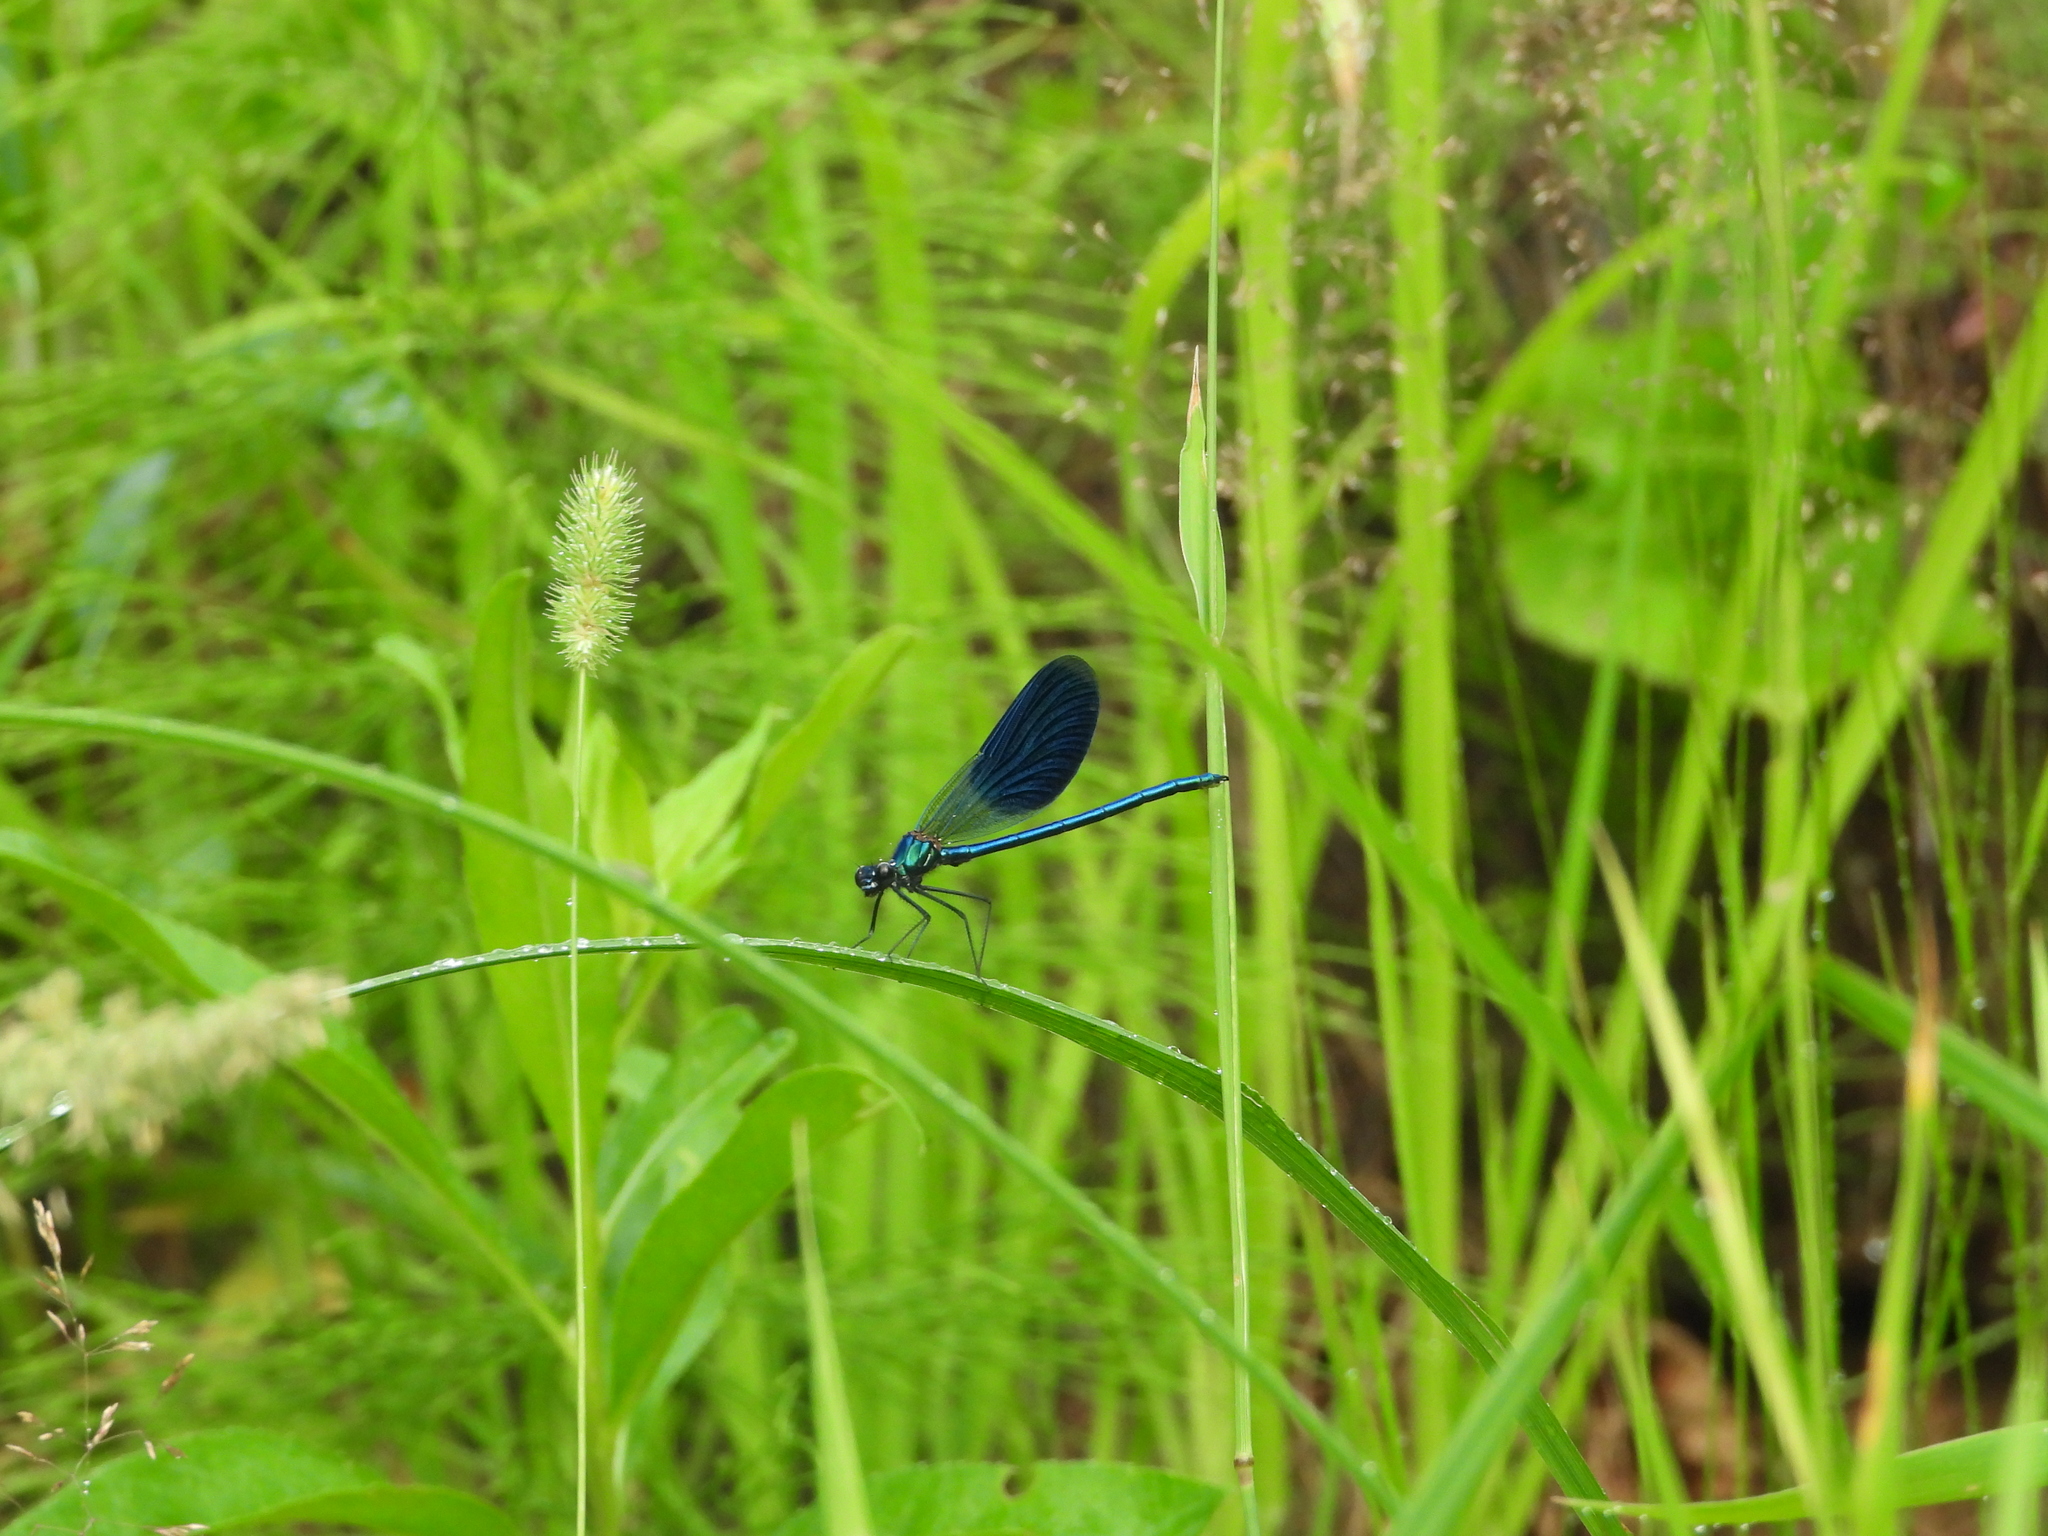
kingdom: Animalia
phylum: Arthropoda
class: Insecta
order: Odonata
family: Calopterygidae
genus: Calopteryx
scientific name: Calopteryx splendens
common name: Banded demoiselle
